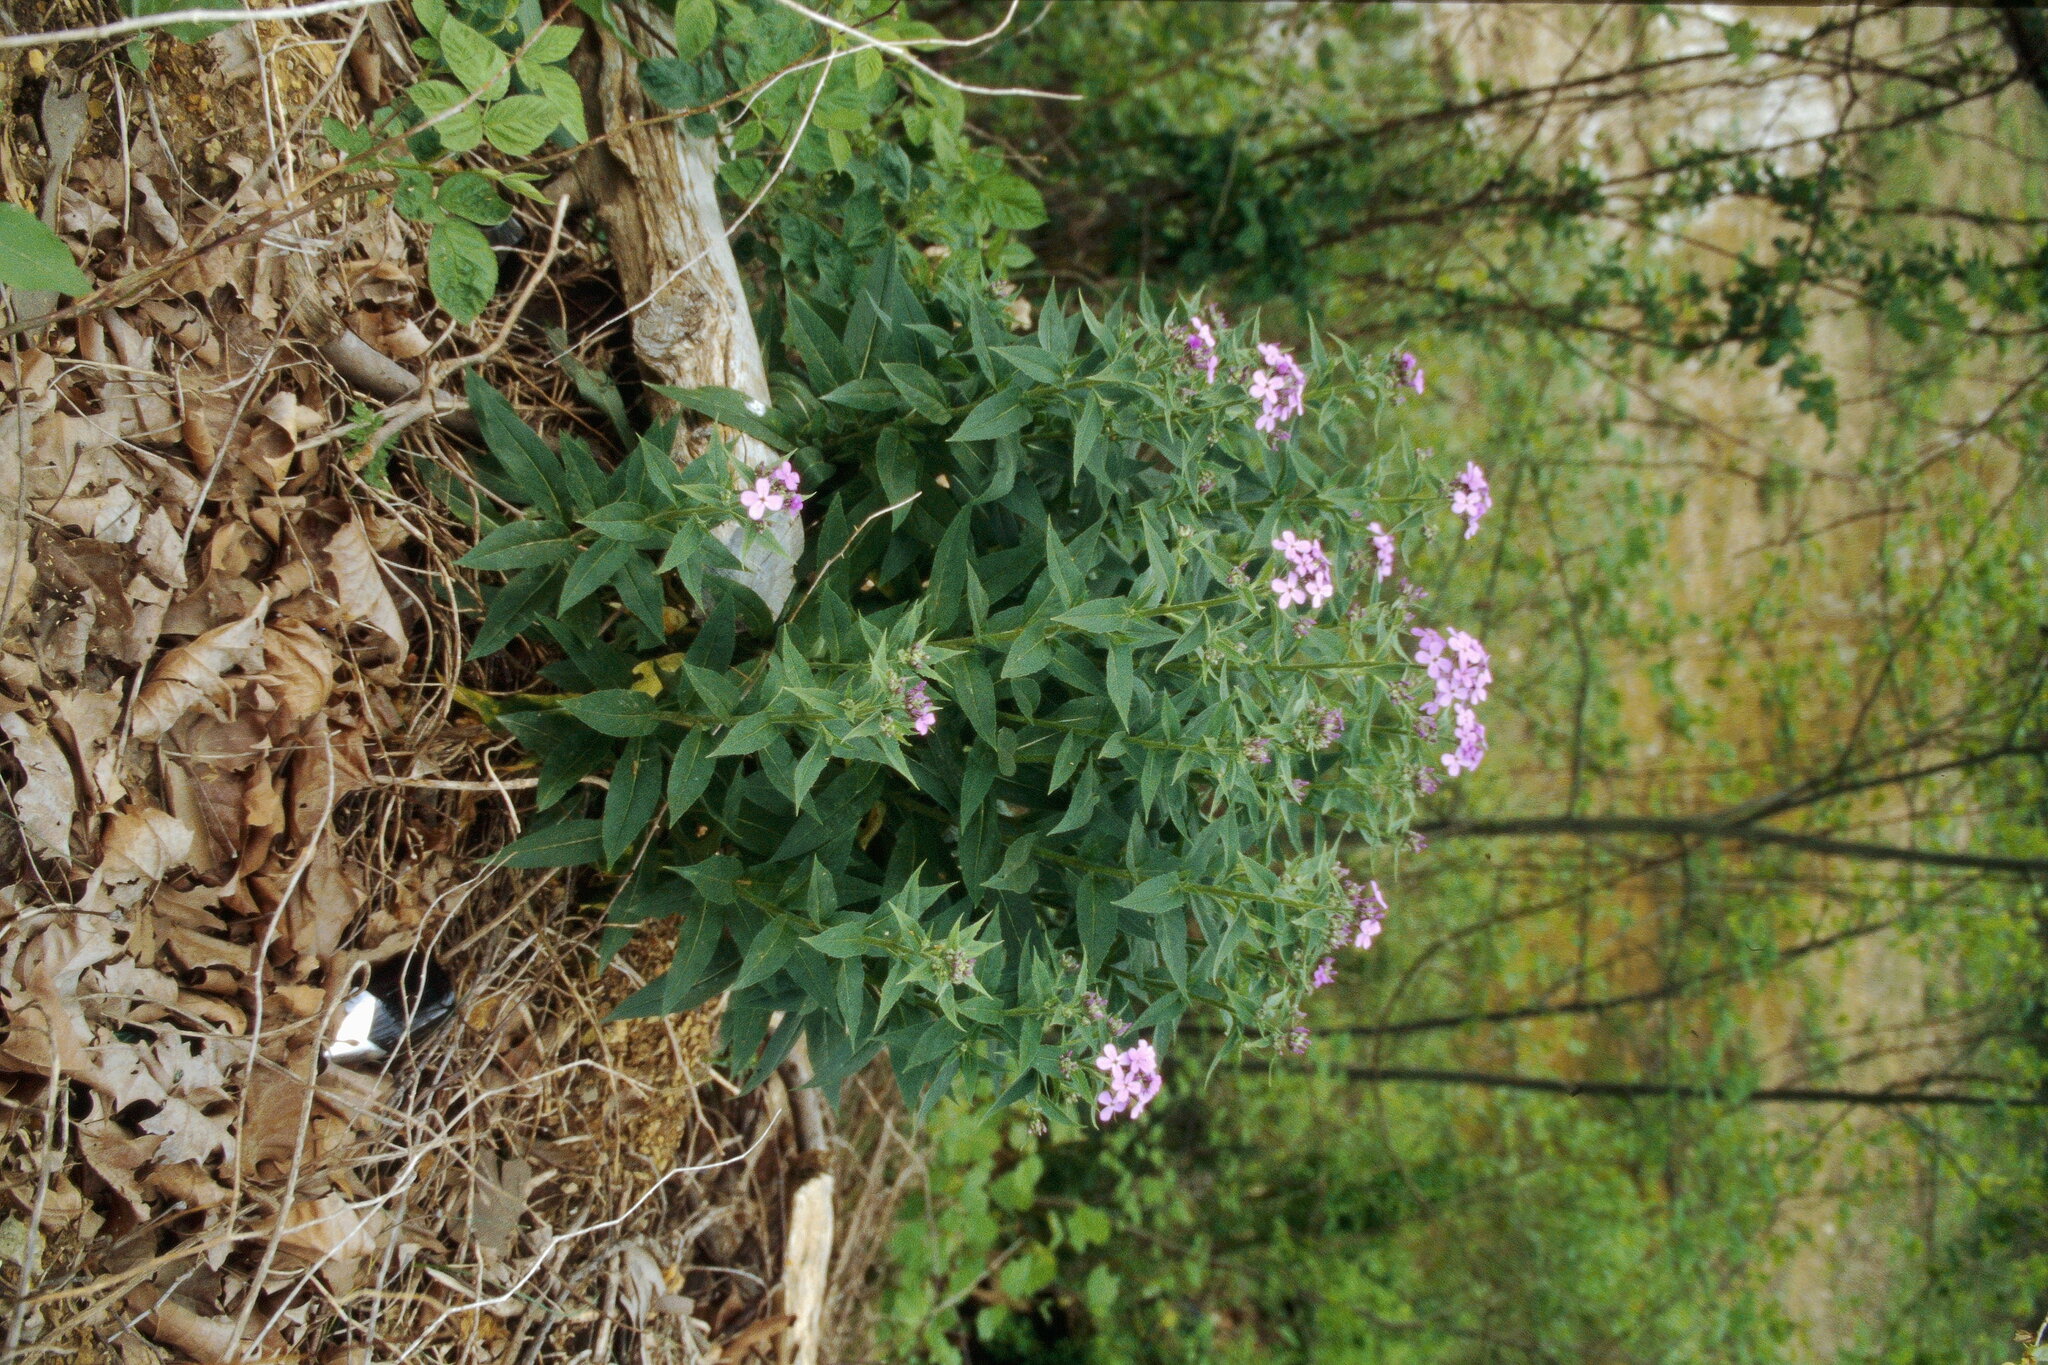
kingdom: Plantae
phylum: Tracheophyta
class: Magnoliopsida
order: Brassicales
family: Brassicaceae
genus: Hesperis
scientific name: Hesperis matronalis
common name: Dame's-violet
